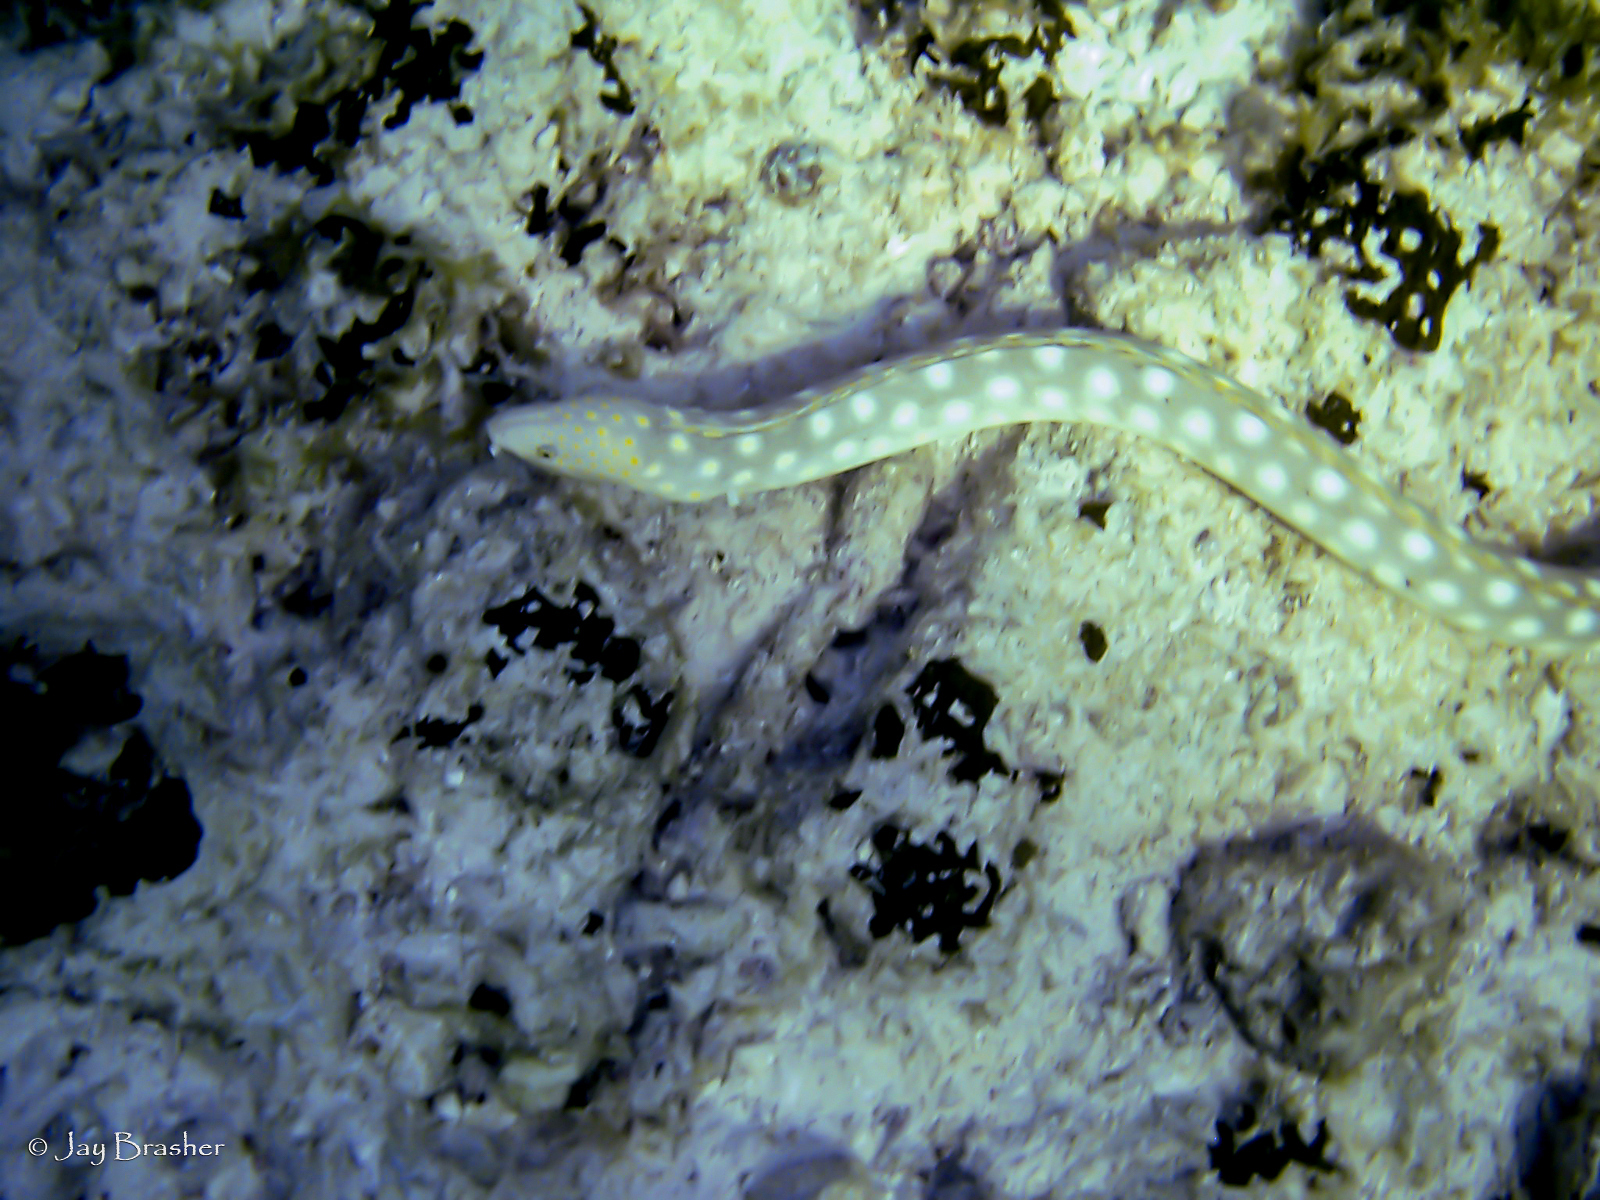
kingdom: Animalia
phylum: Chordata
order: Anguilliformes
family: Ophichthidae
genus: Myrichthys
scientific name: Myrichthys breviceps
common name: Sharptail eel
